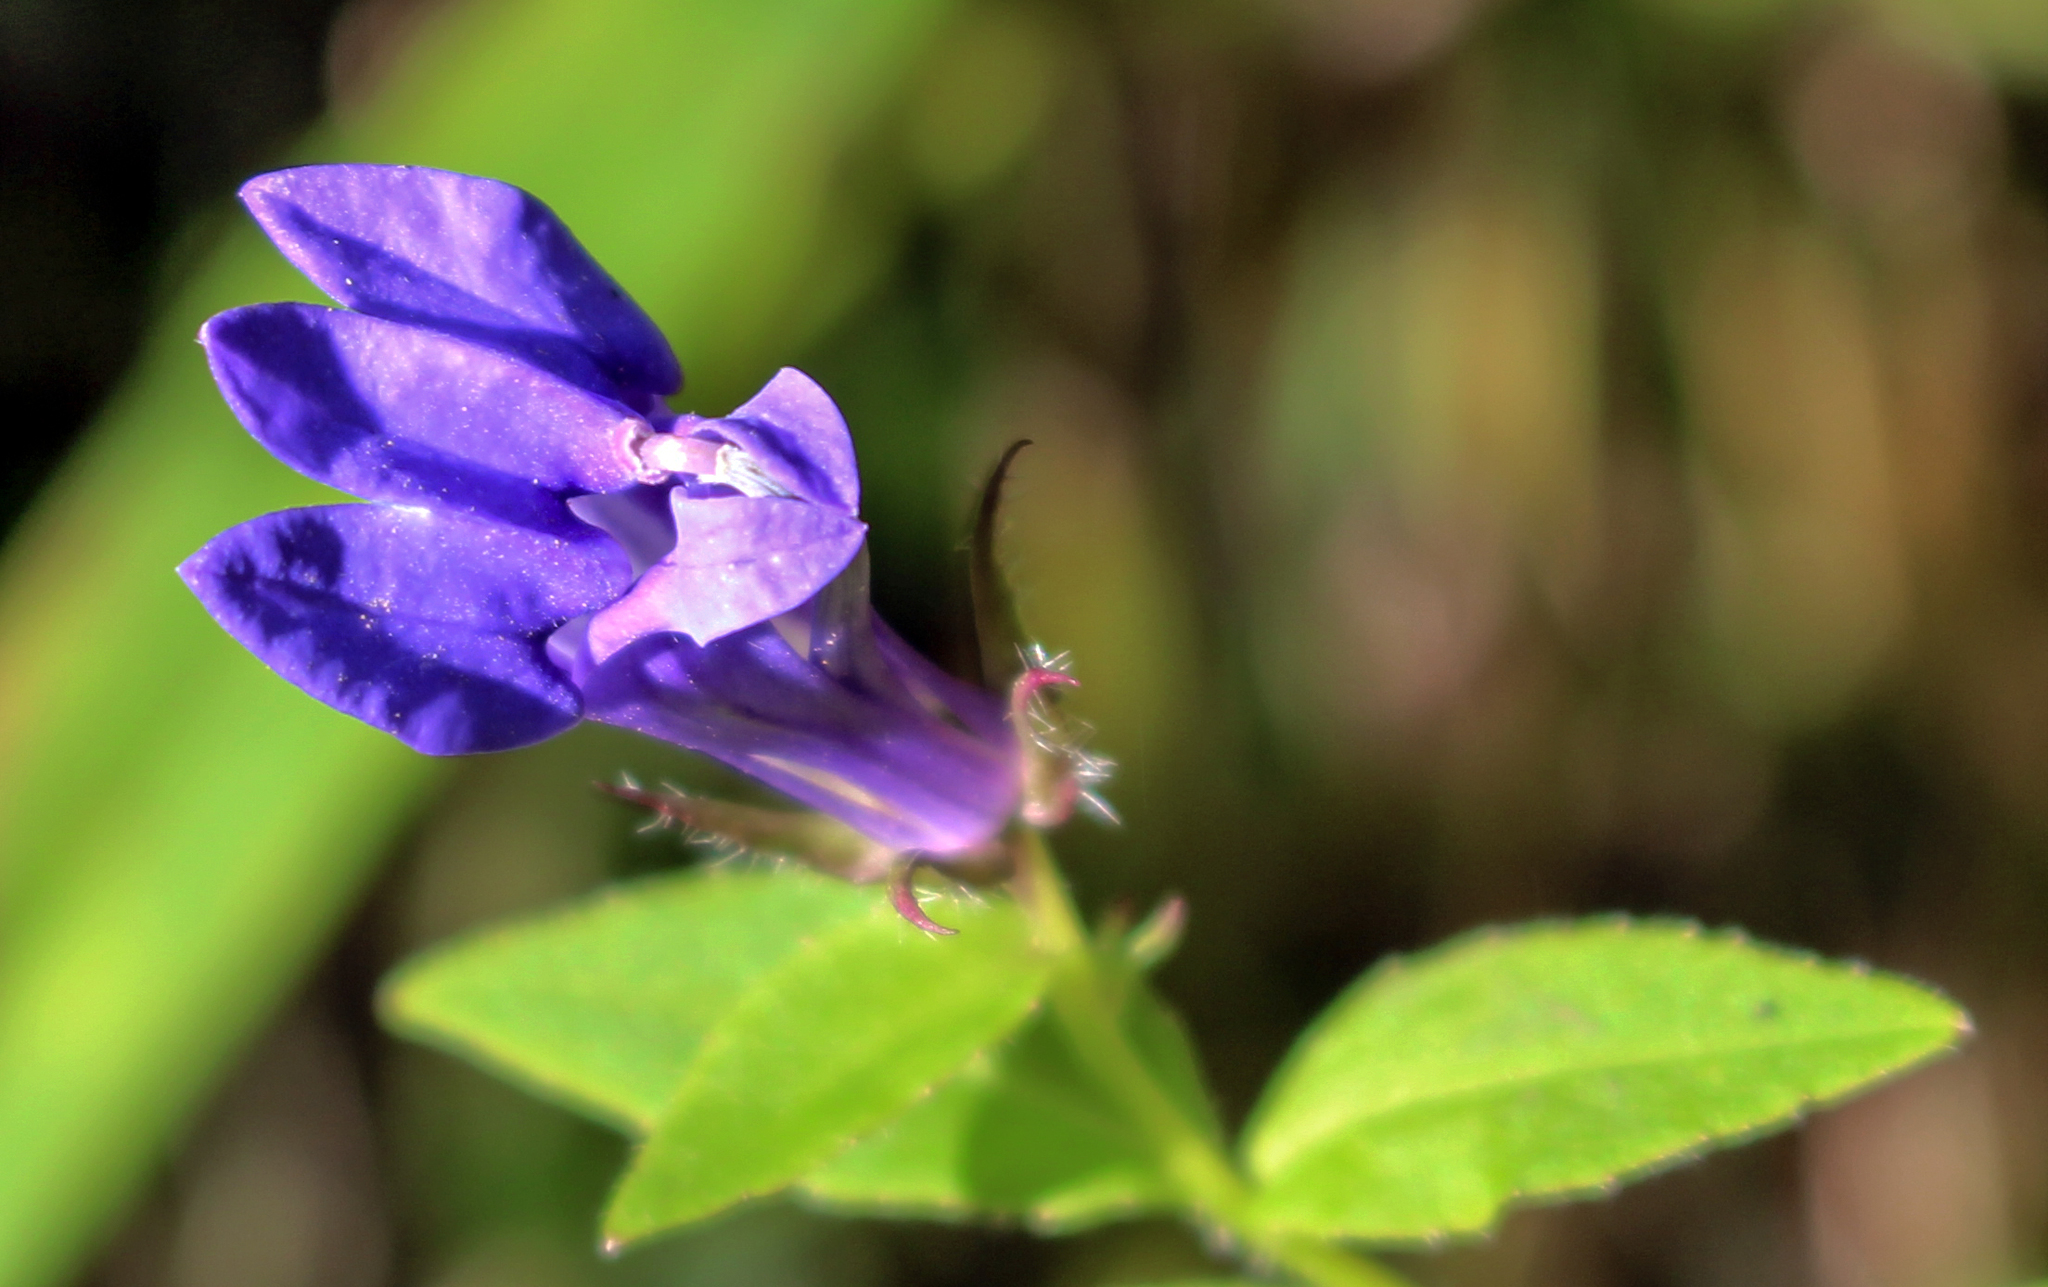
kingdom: Plantae
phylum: Tracheophyta
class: Magnoliopsida
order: Asterales
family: Campanulaceae
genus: Lobelia
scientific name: Lobelia siphilitica
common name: Great lobelia
